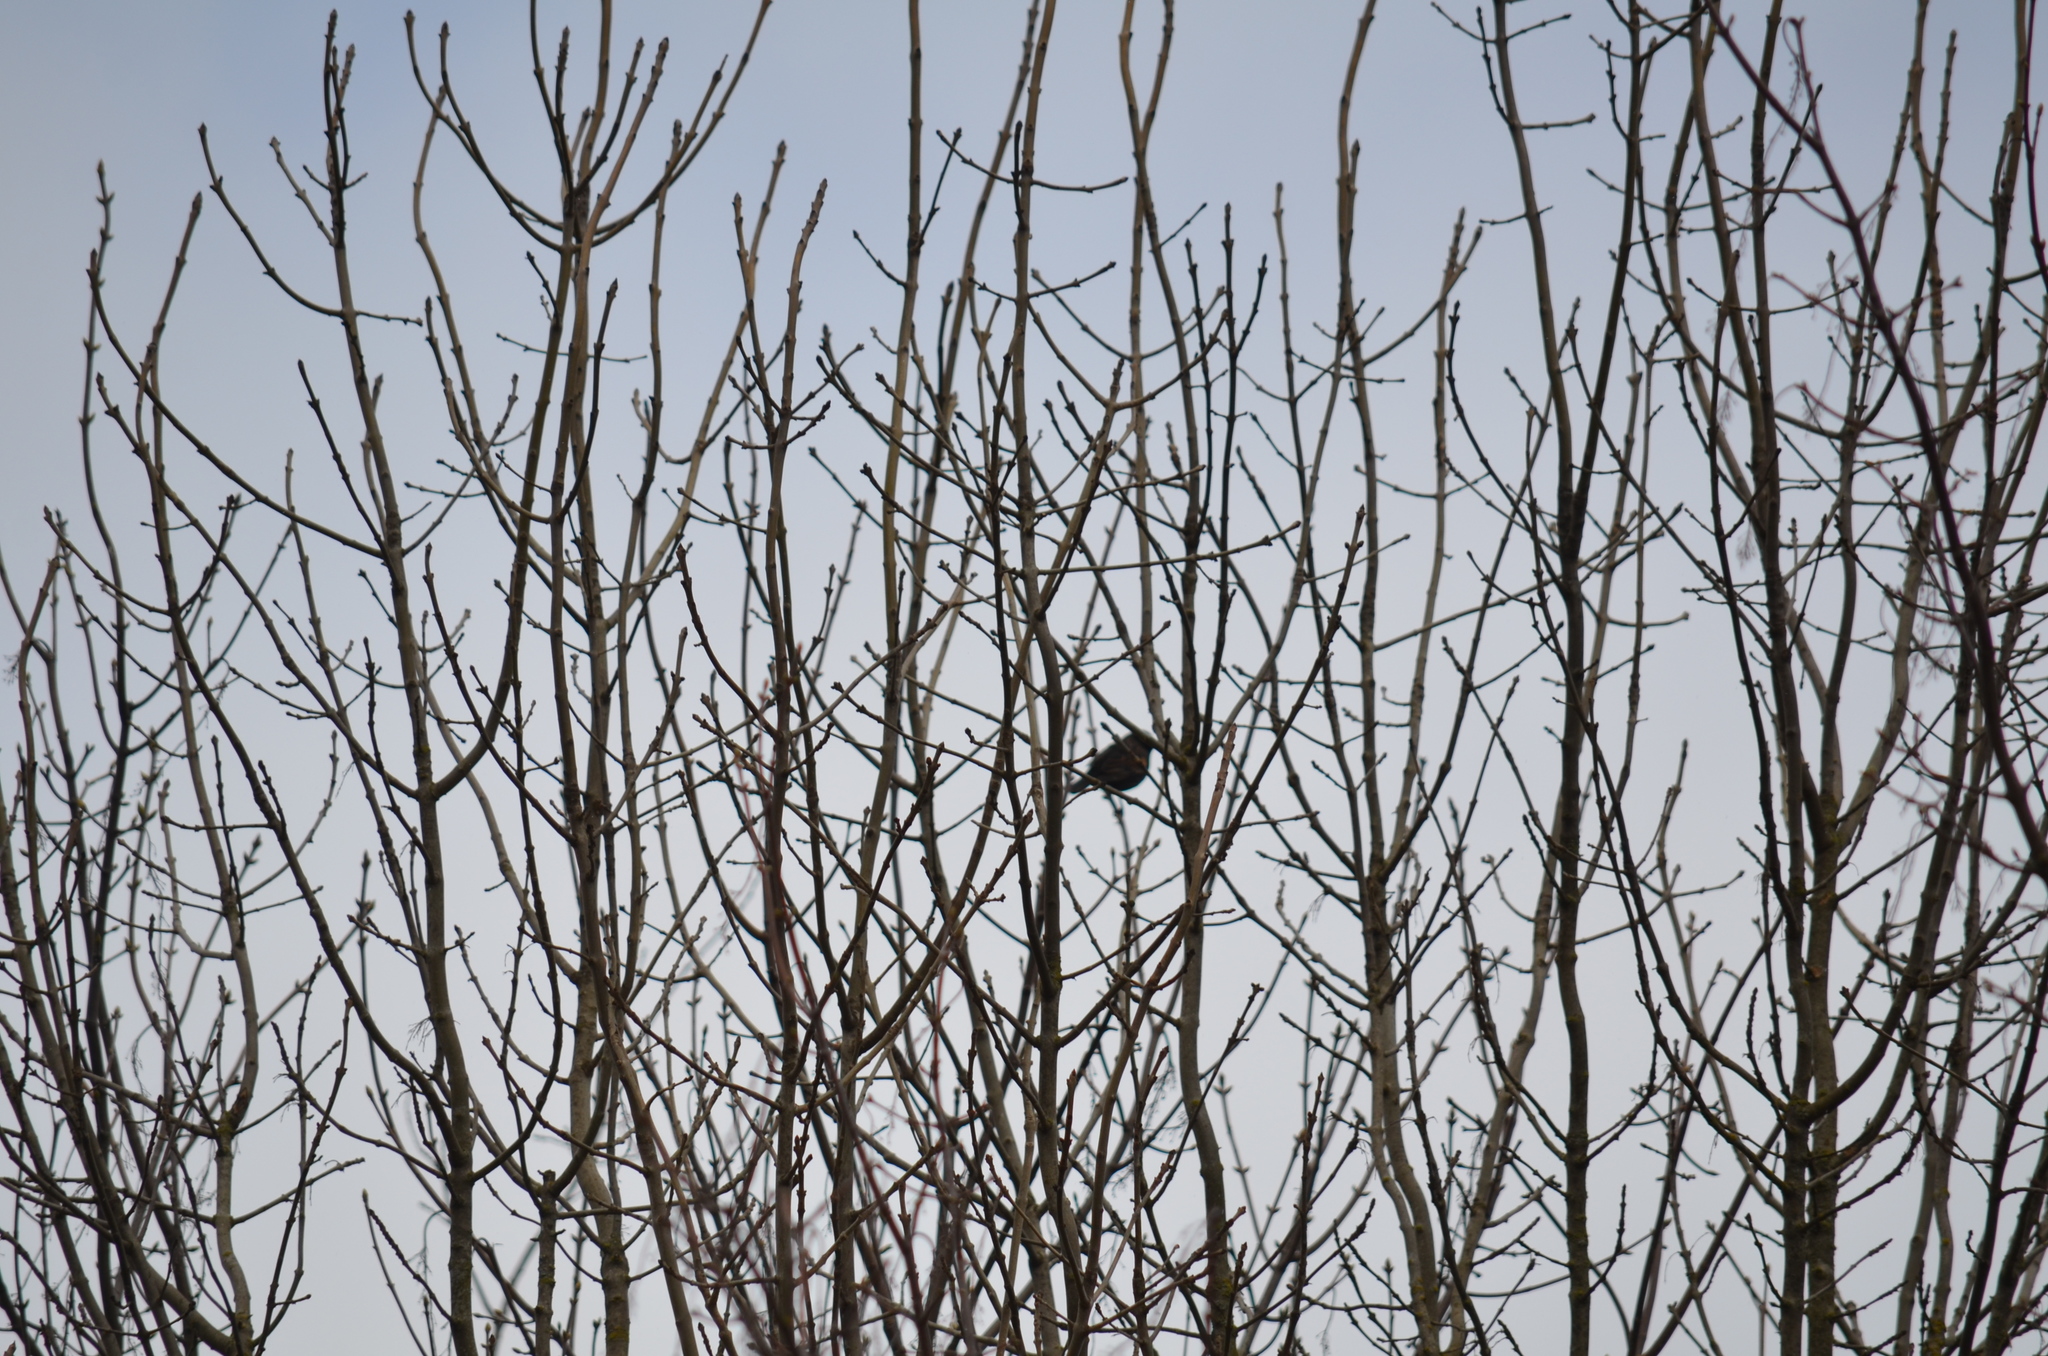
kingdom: Animalia
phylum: Chordata
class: Aves
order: Passeriformes
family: Turdidae
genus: Turdus
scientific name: Turdus migratorius
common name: American robin
